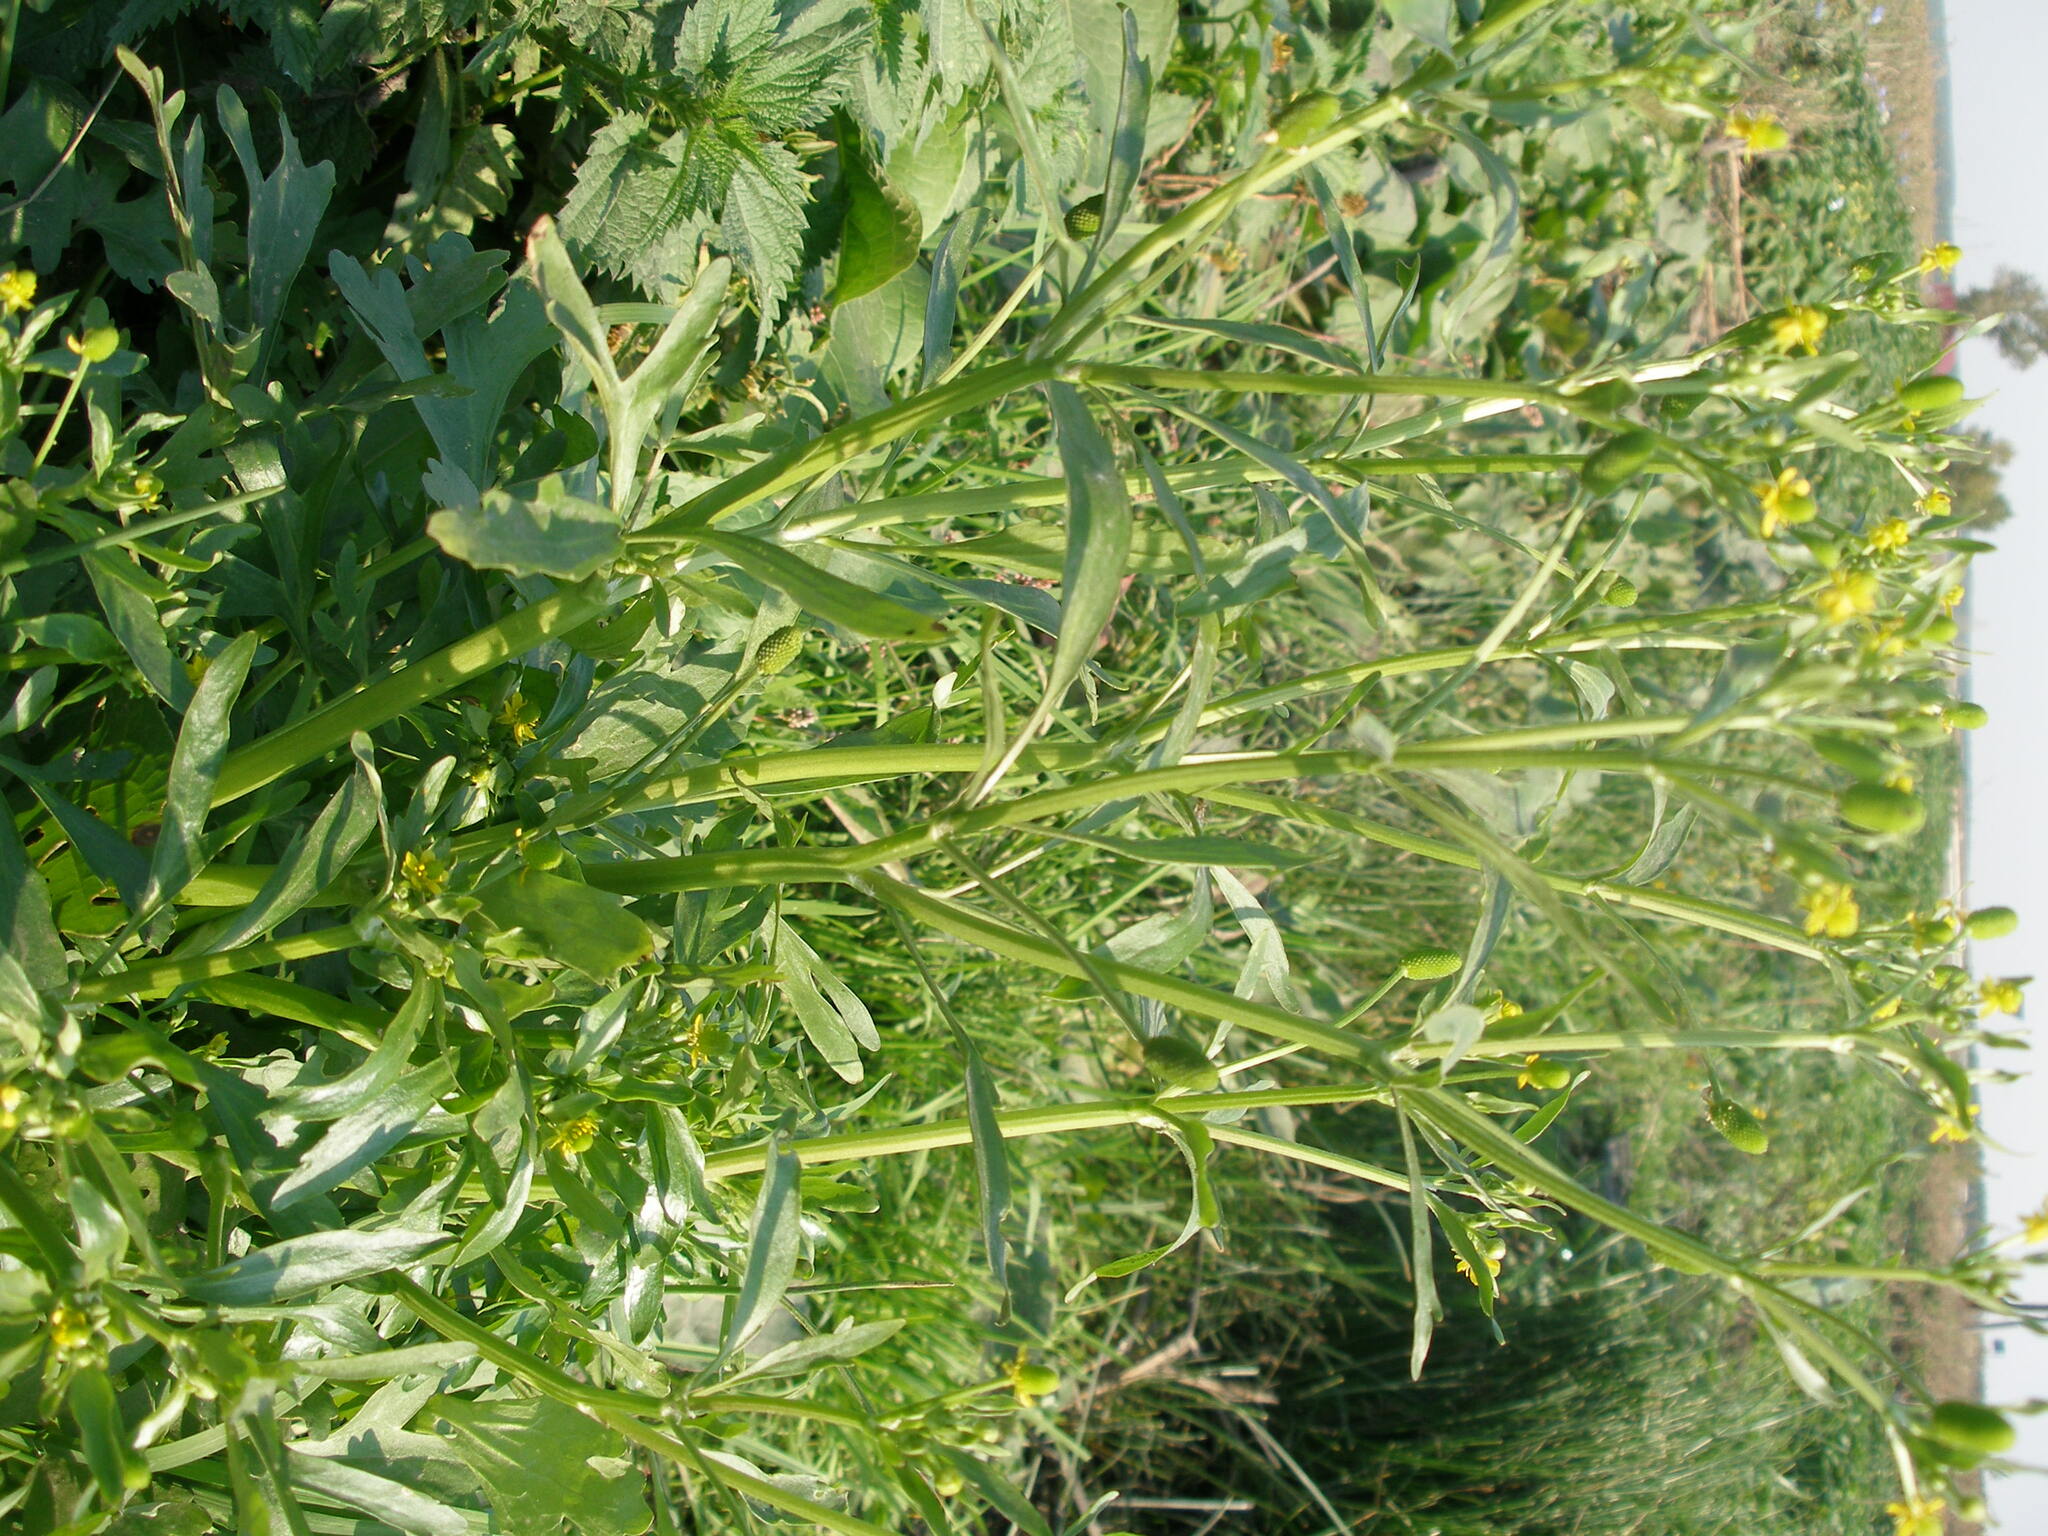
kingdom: Plantae
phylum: Tracheophyta
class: Magnoliopsida
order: Ranunculales
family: Ranunculaceae
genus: Ranunculus
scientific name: Ranunculus sceleratus
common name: Celery-leaved buttercup
